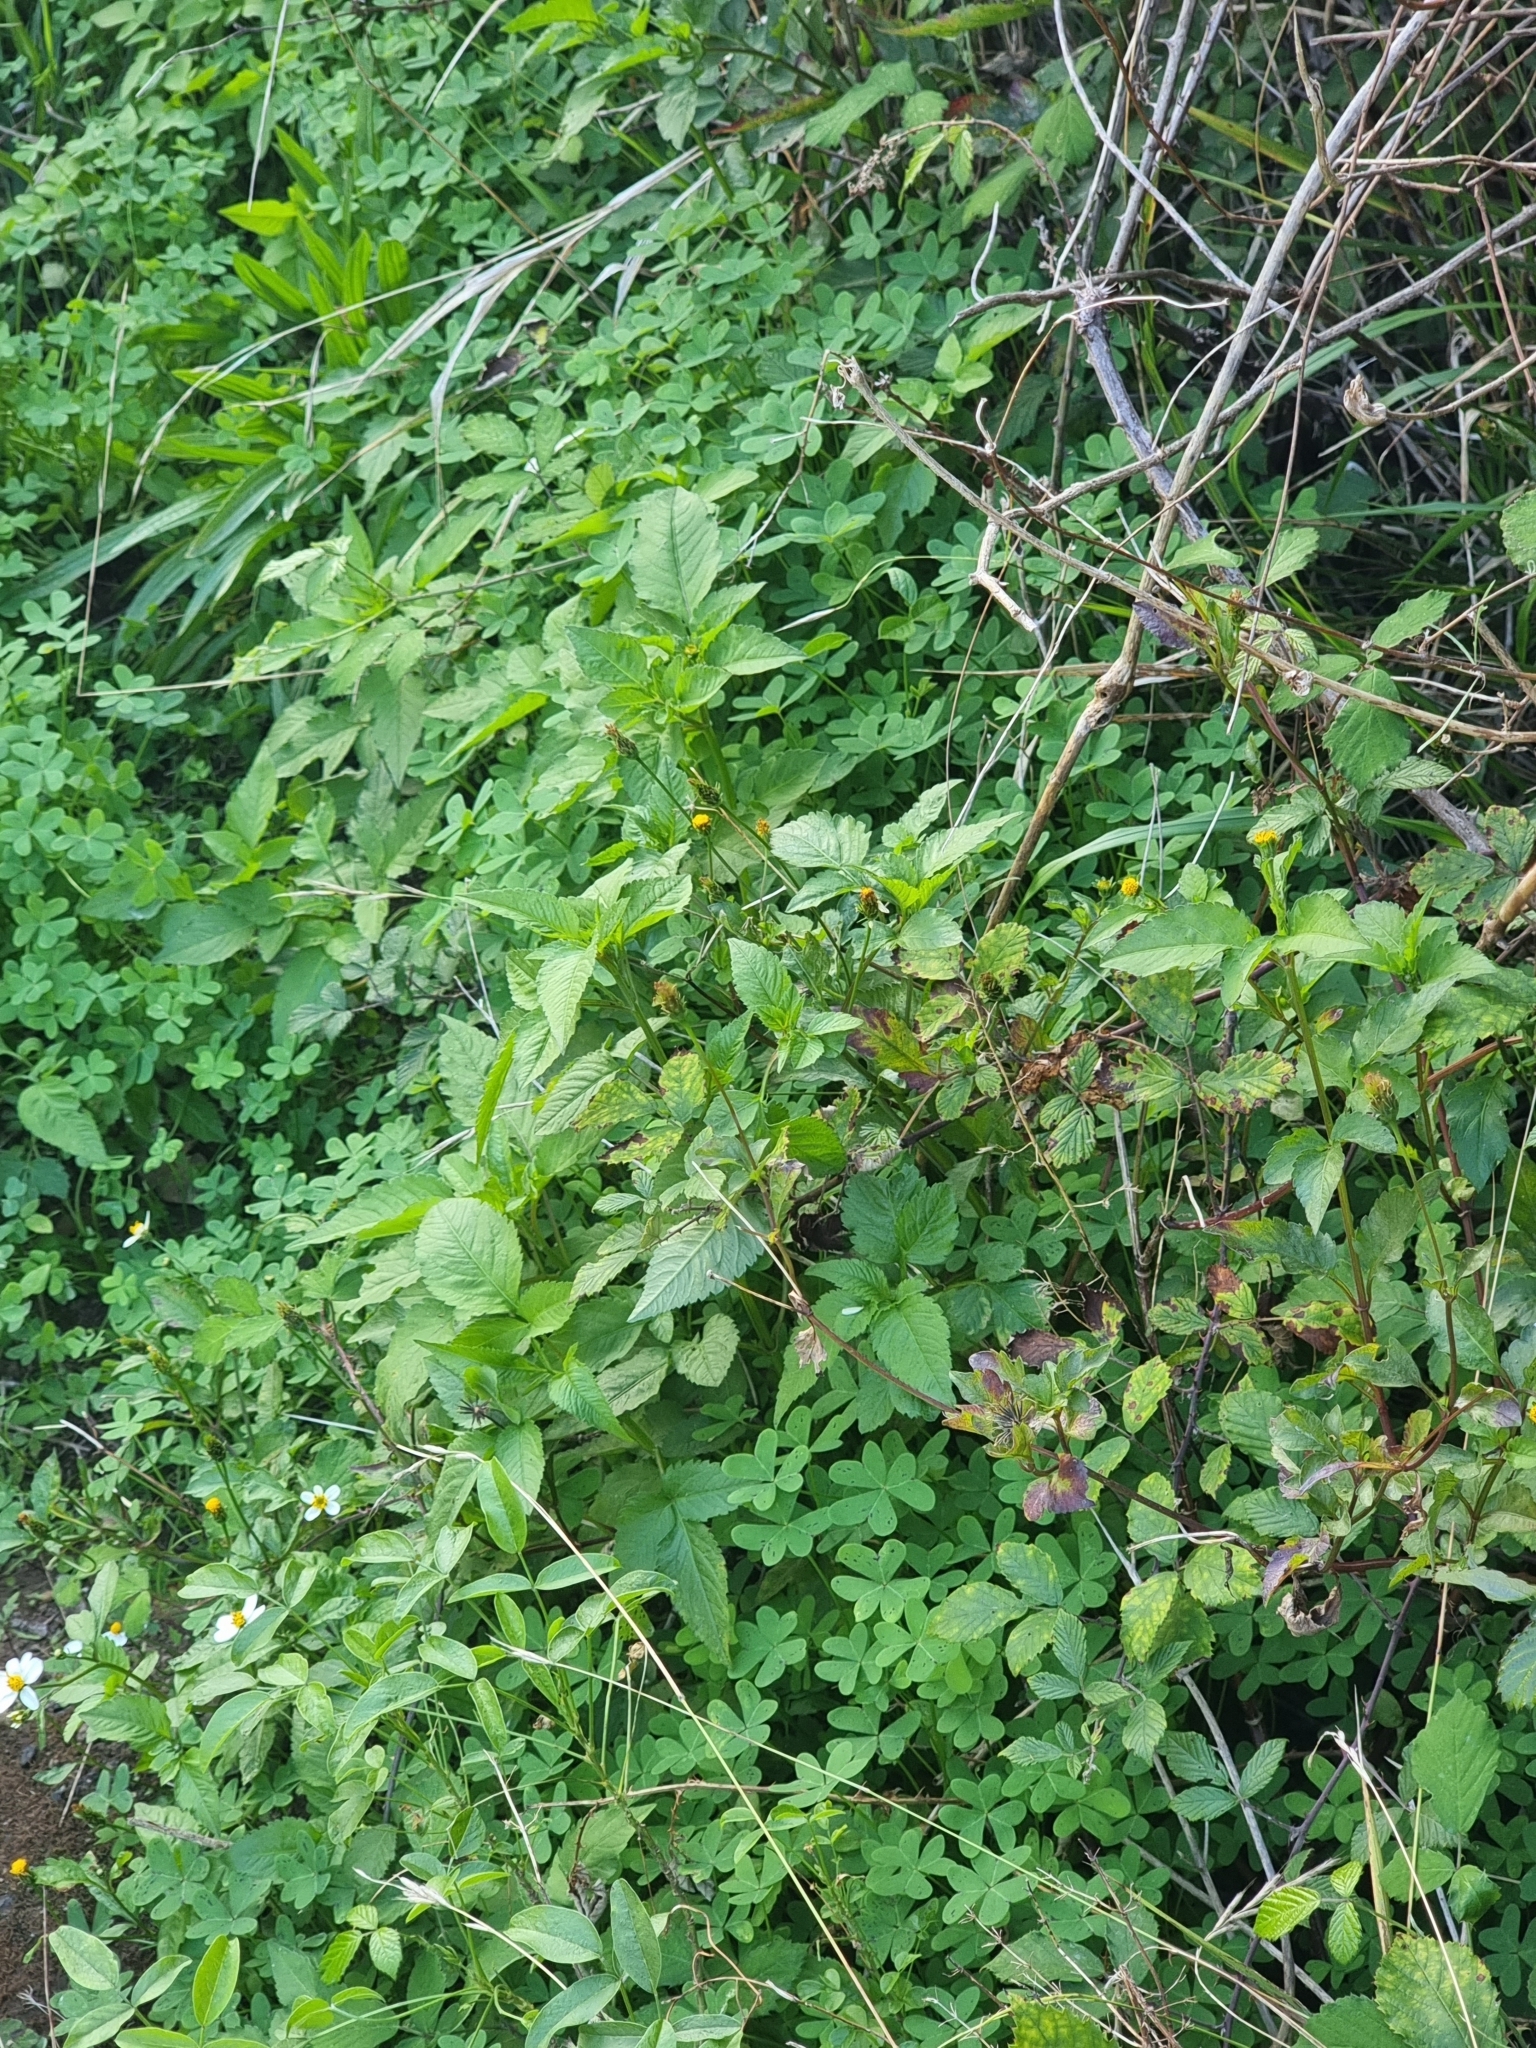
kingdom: Plantae
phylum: Tracheophyta
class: Magnoliopsida
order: Asterales
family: Asteraceae
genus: Bidens
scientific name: Bidens pilosa
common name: Black-jack
